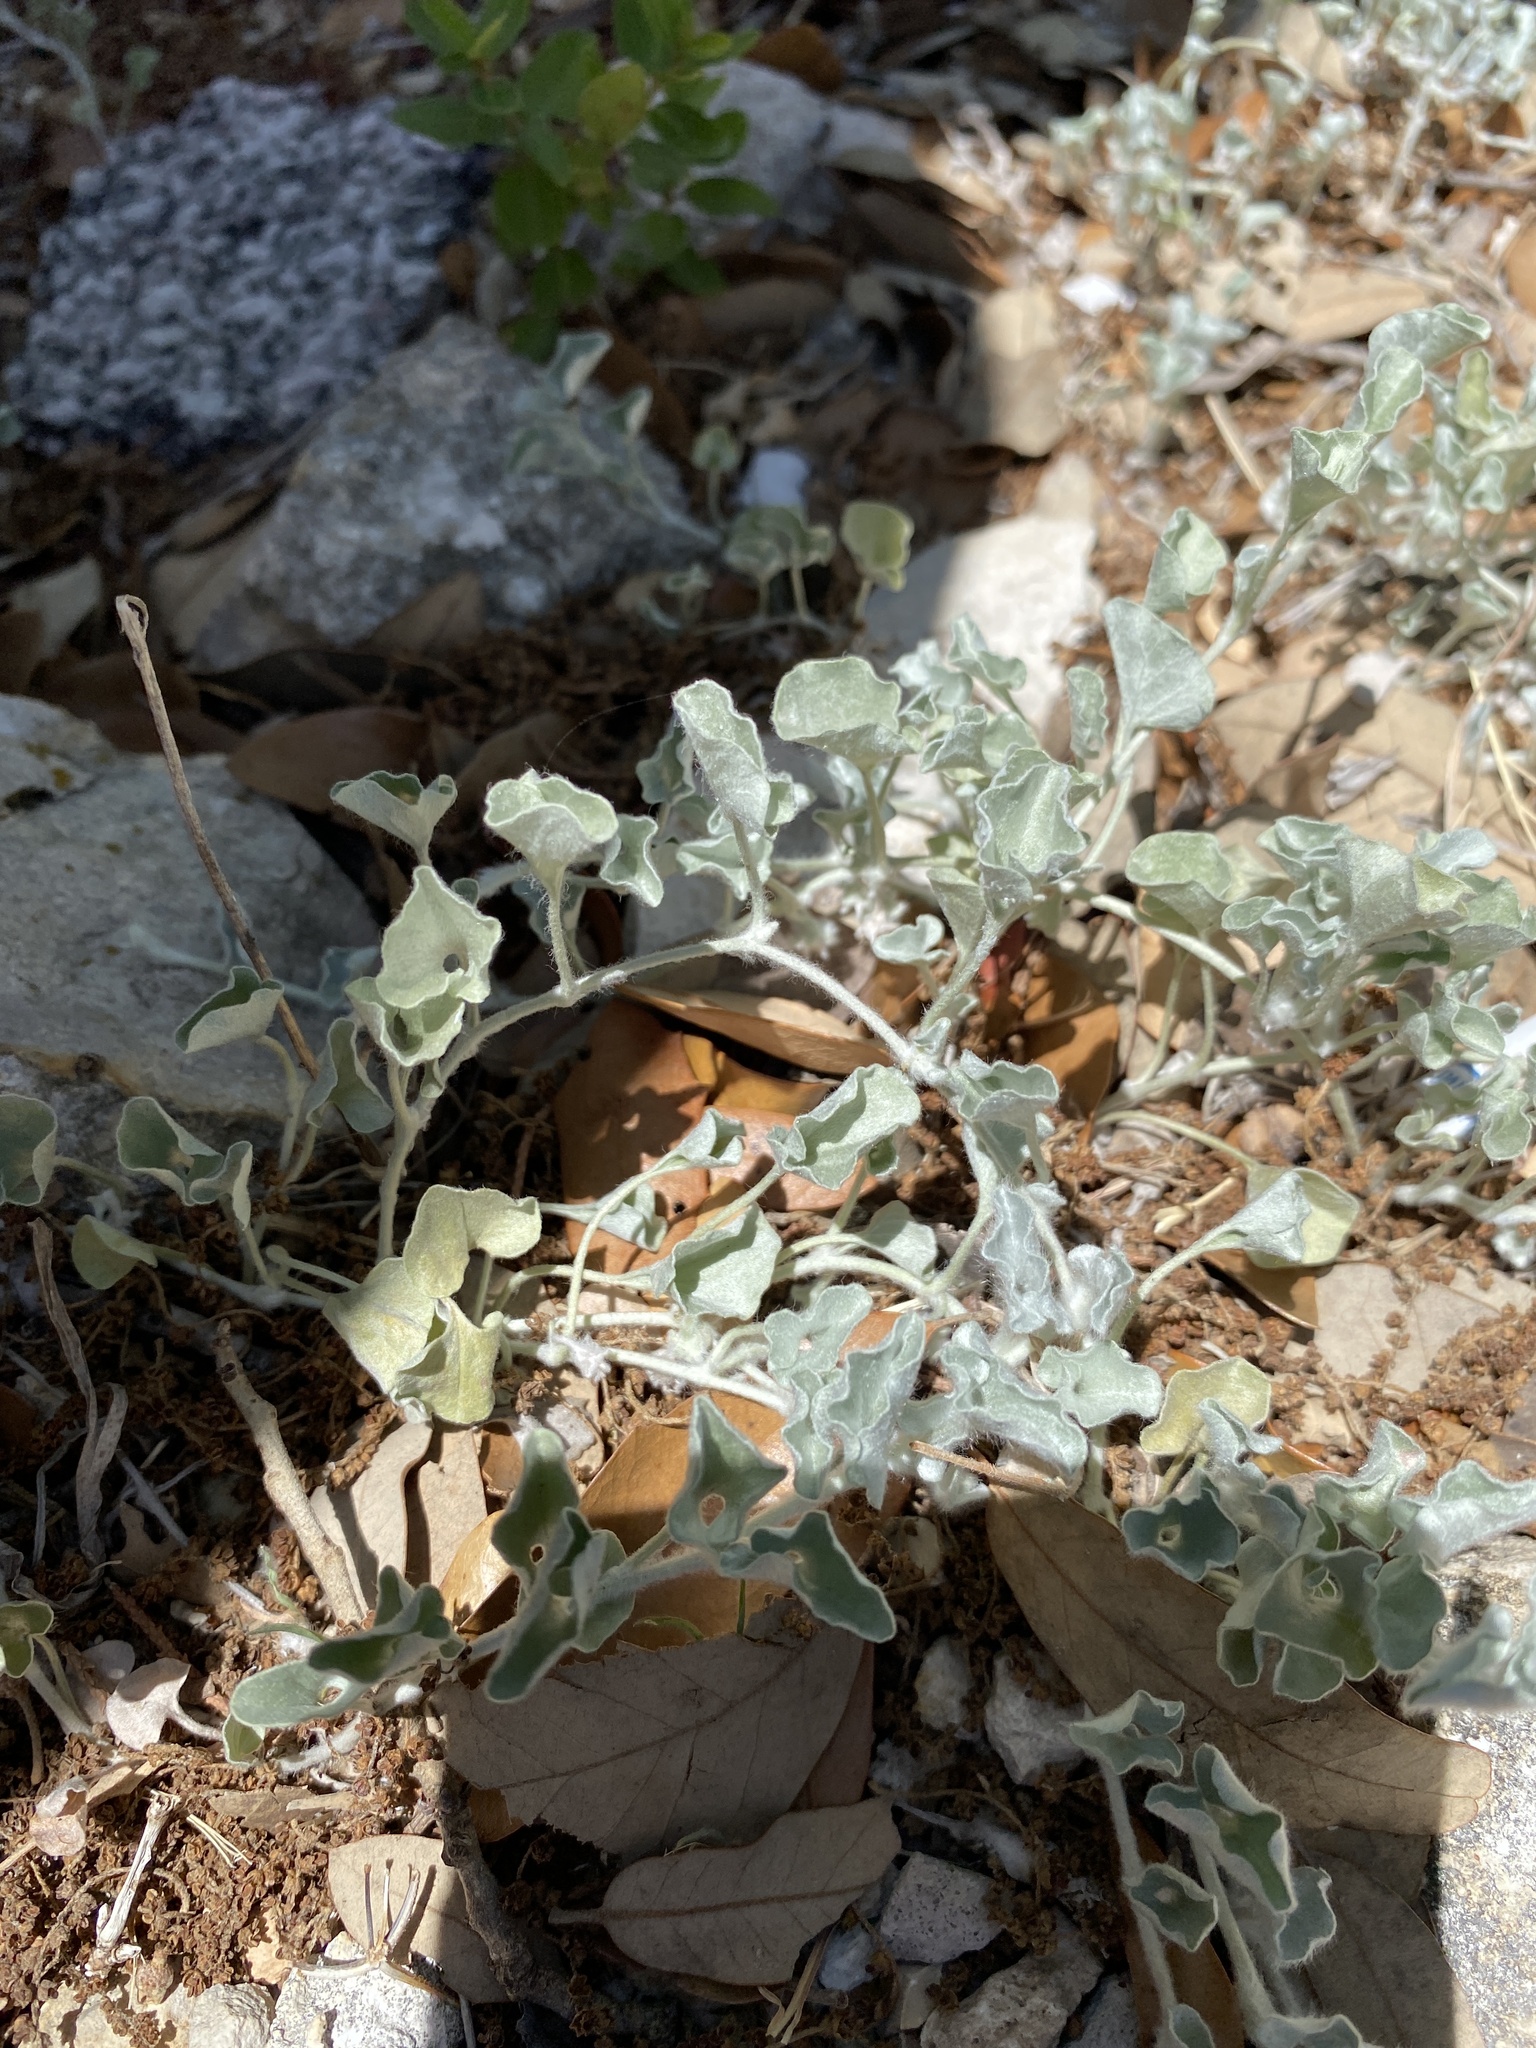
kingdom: Plantae
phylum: Tracheophyta
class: Magnoliopsida
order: Solanales
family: Convolvulaceae
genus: Dichondra
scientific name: Dichondra argentea
